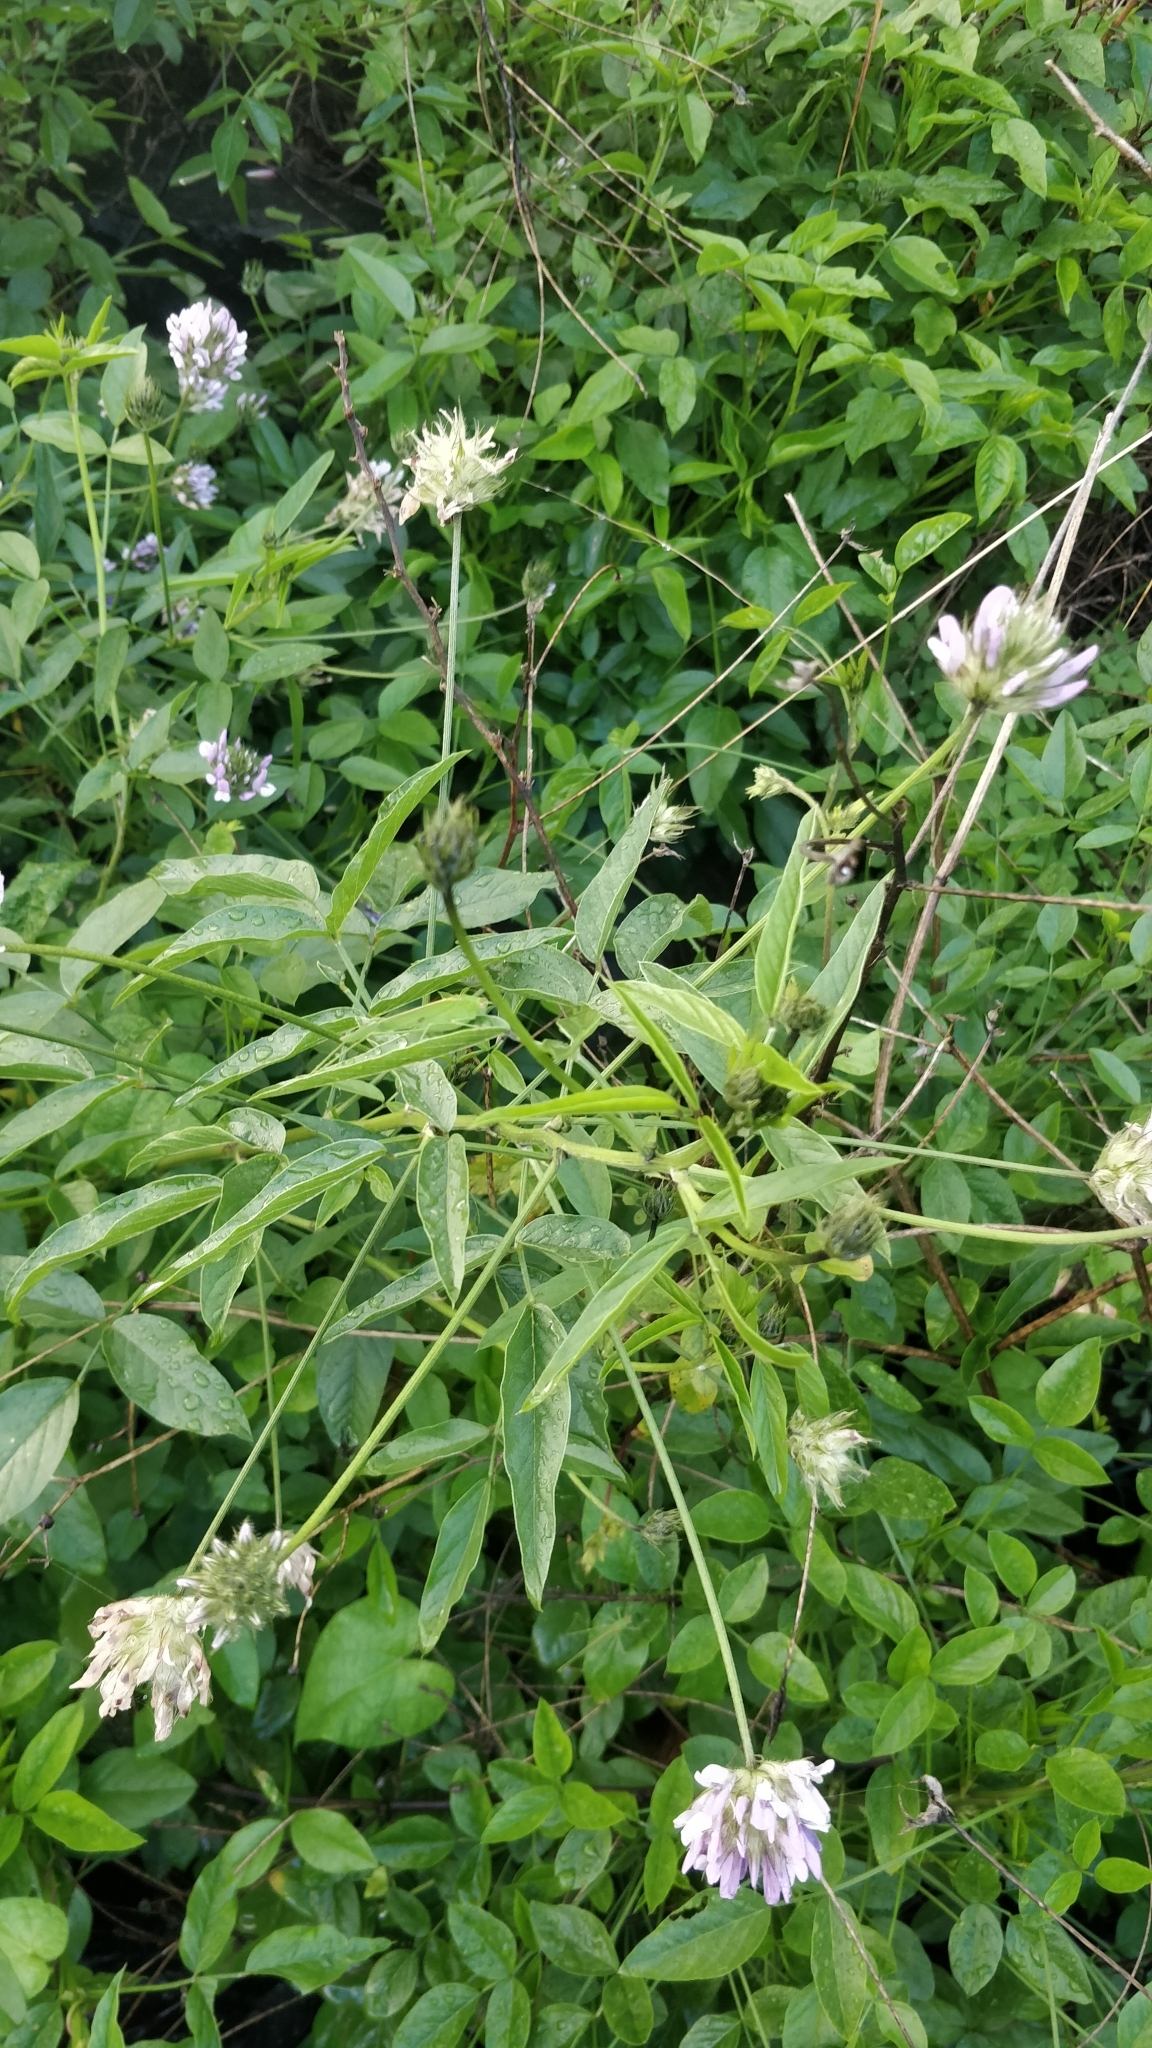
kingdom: Plantae
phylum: Tracheophyta
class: Magnoliopsida
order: Fabales
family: Fabaceae
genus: Bituminaria
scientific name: Bituminaria bituminosa
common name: Arabian pea
